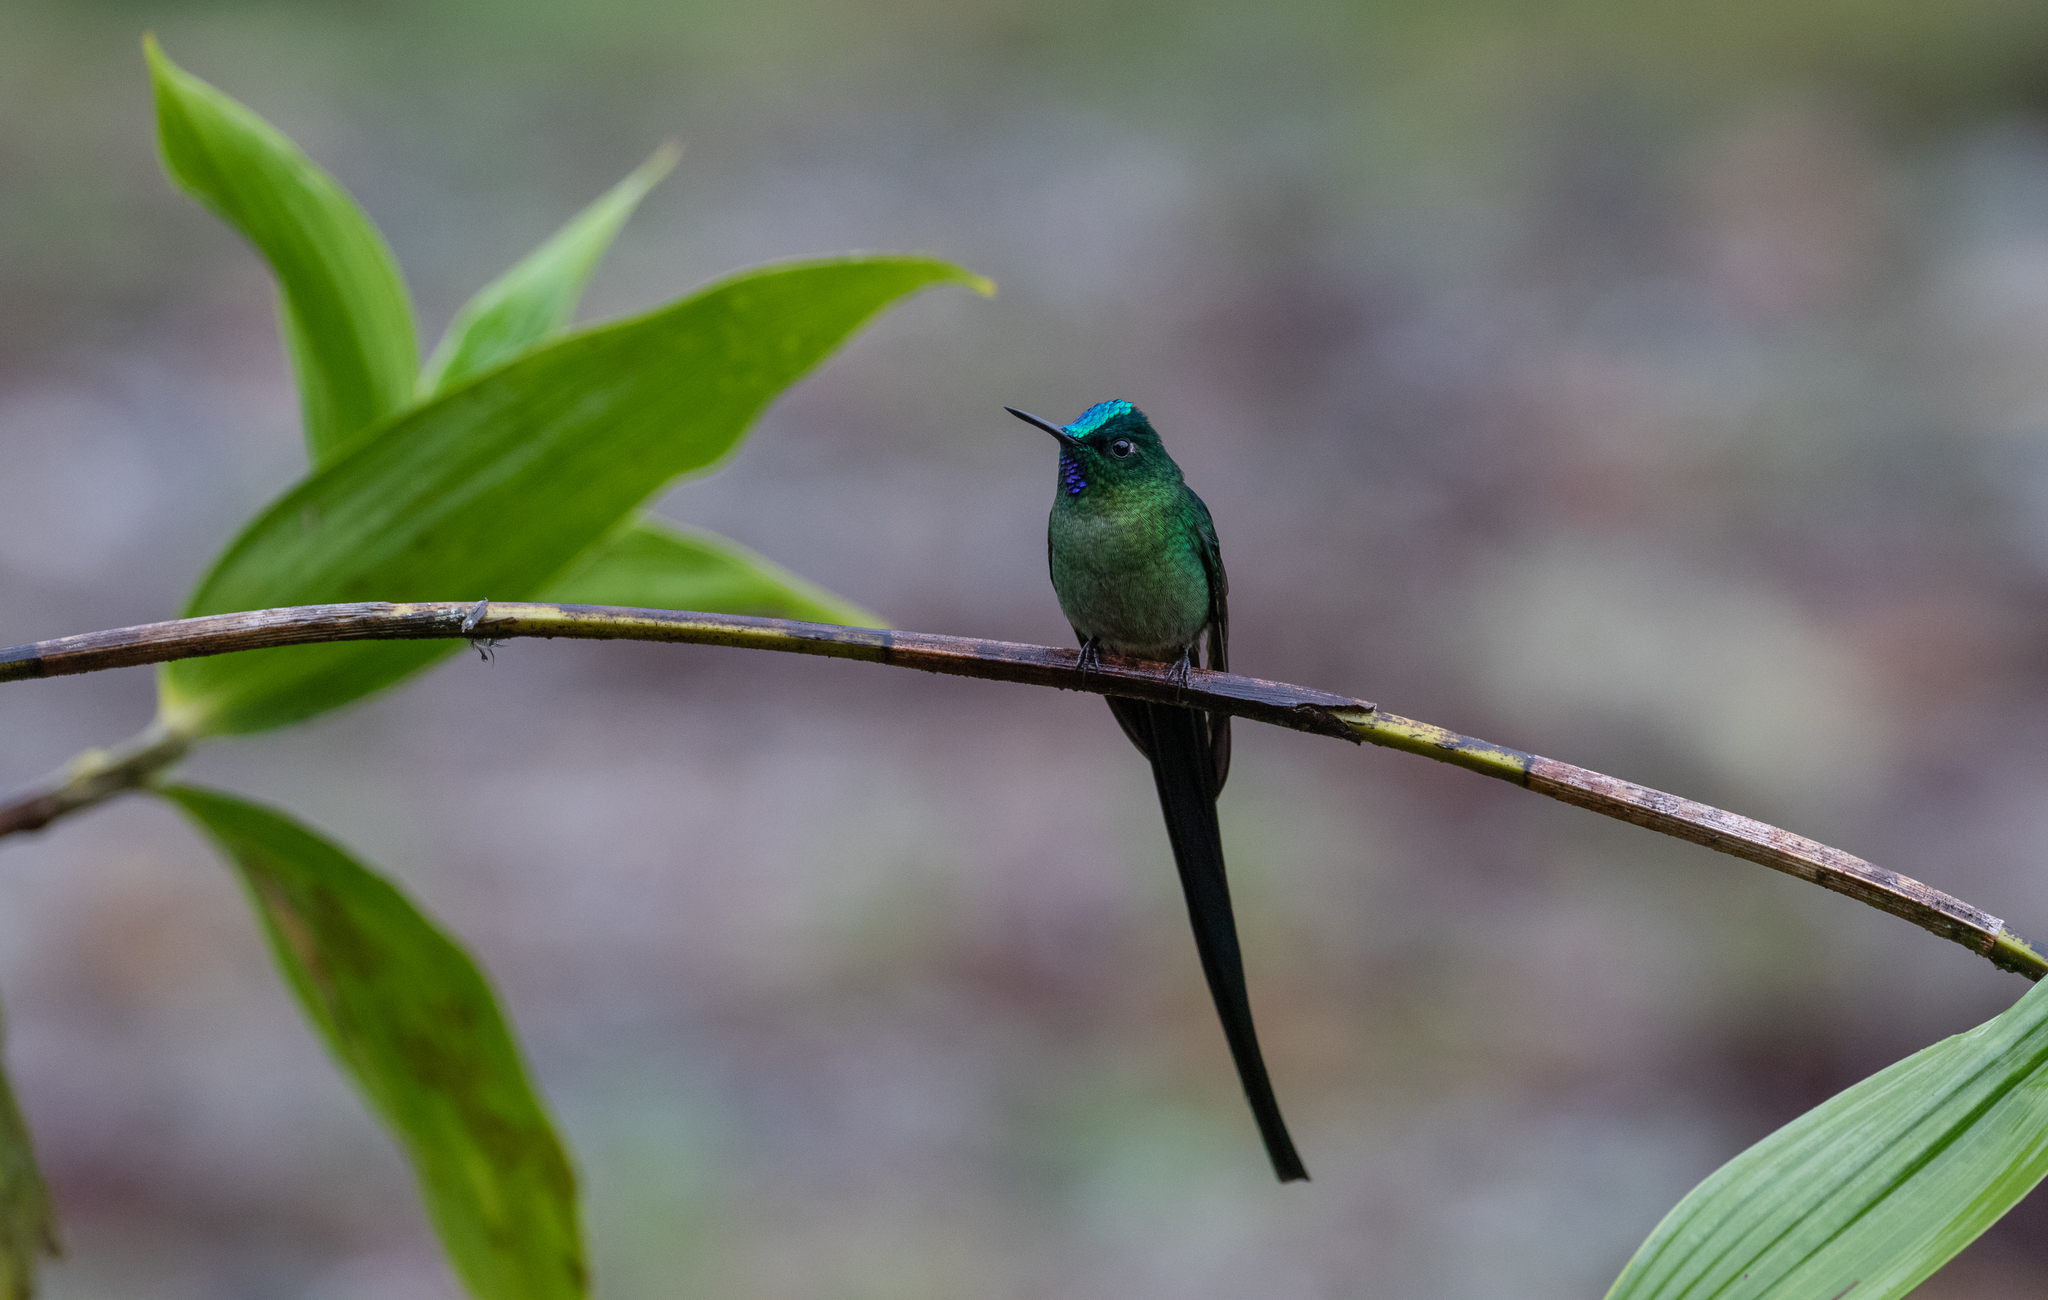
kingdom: Animalia
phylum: Chordata
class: Aves
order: Apodiformes
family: Trochilidae
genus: Aglaiocercus
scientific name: Aglaiocercus kingii
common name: Long-tailed sylph
